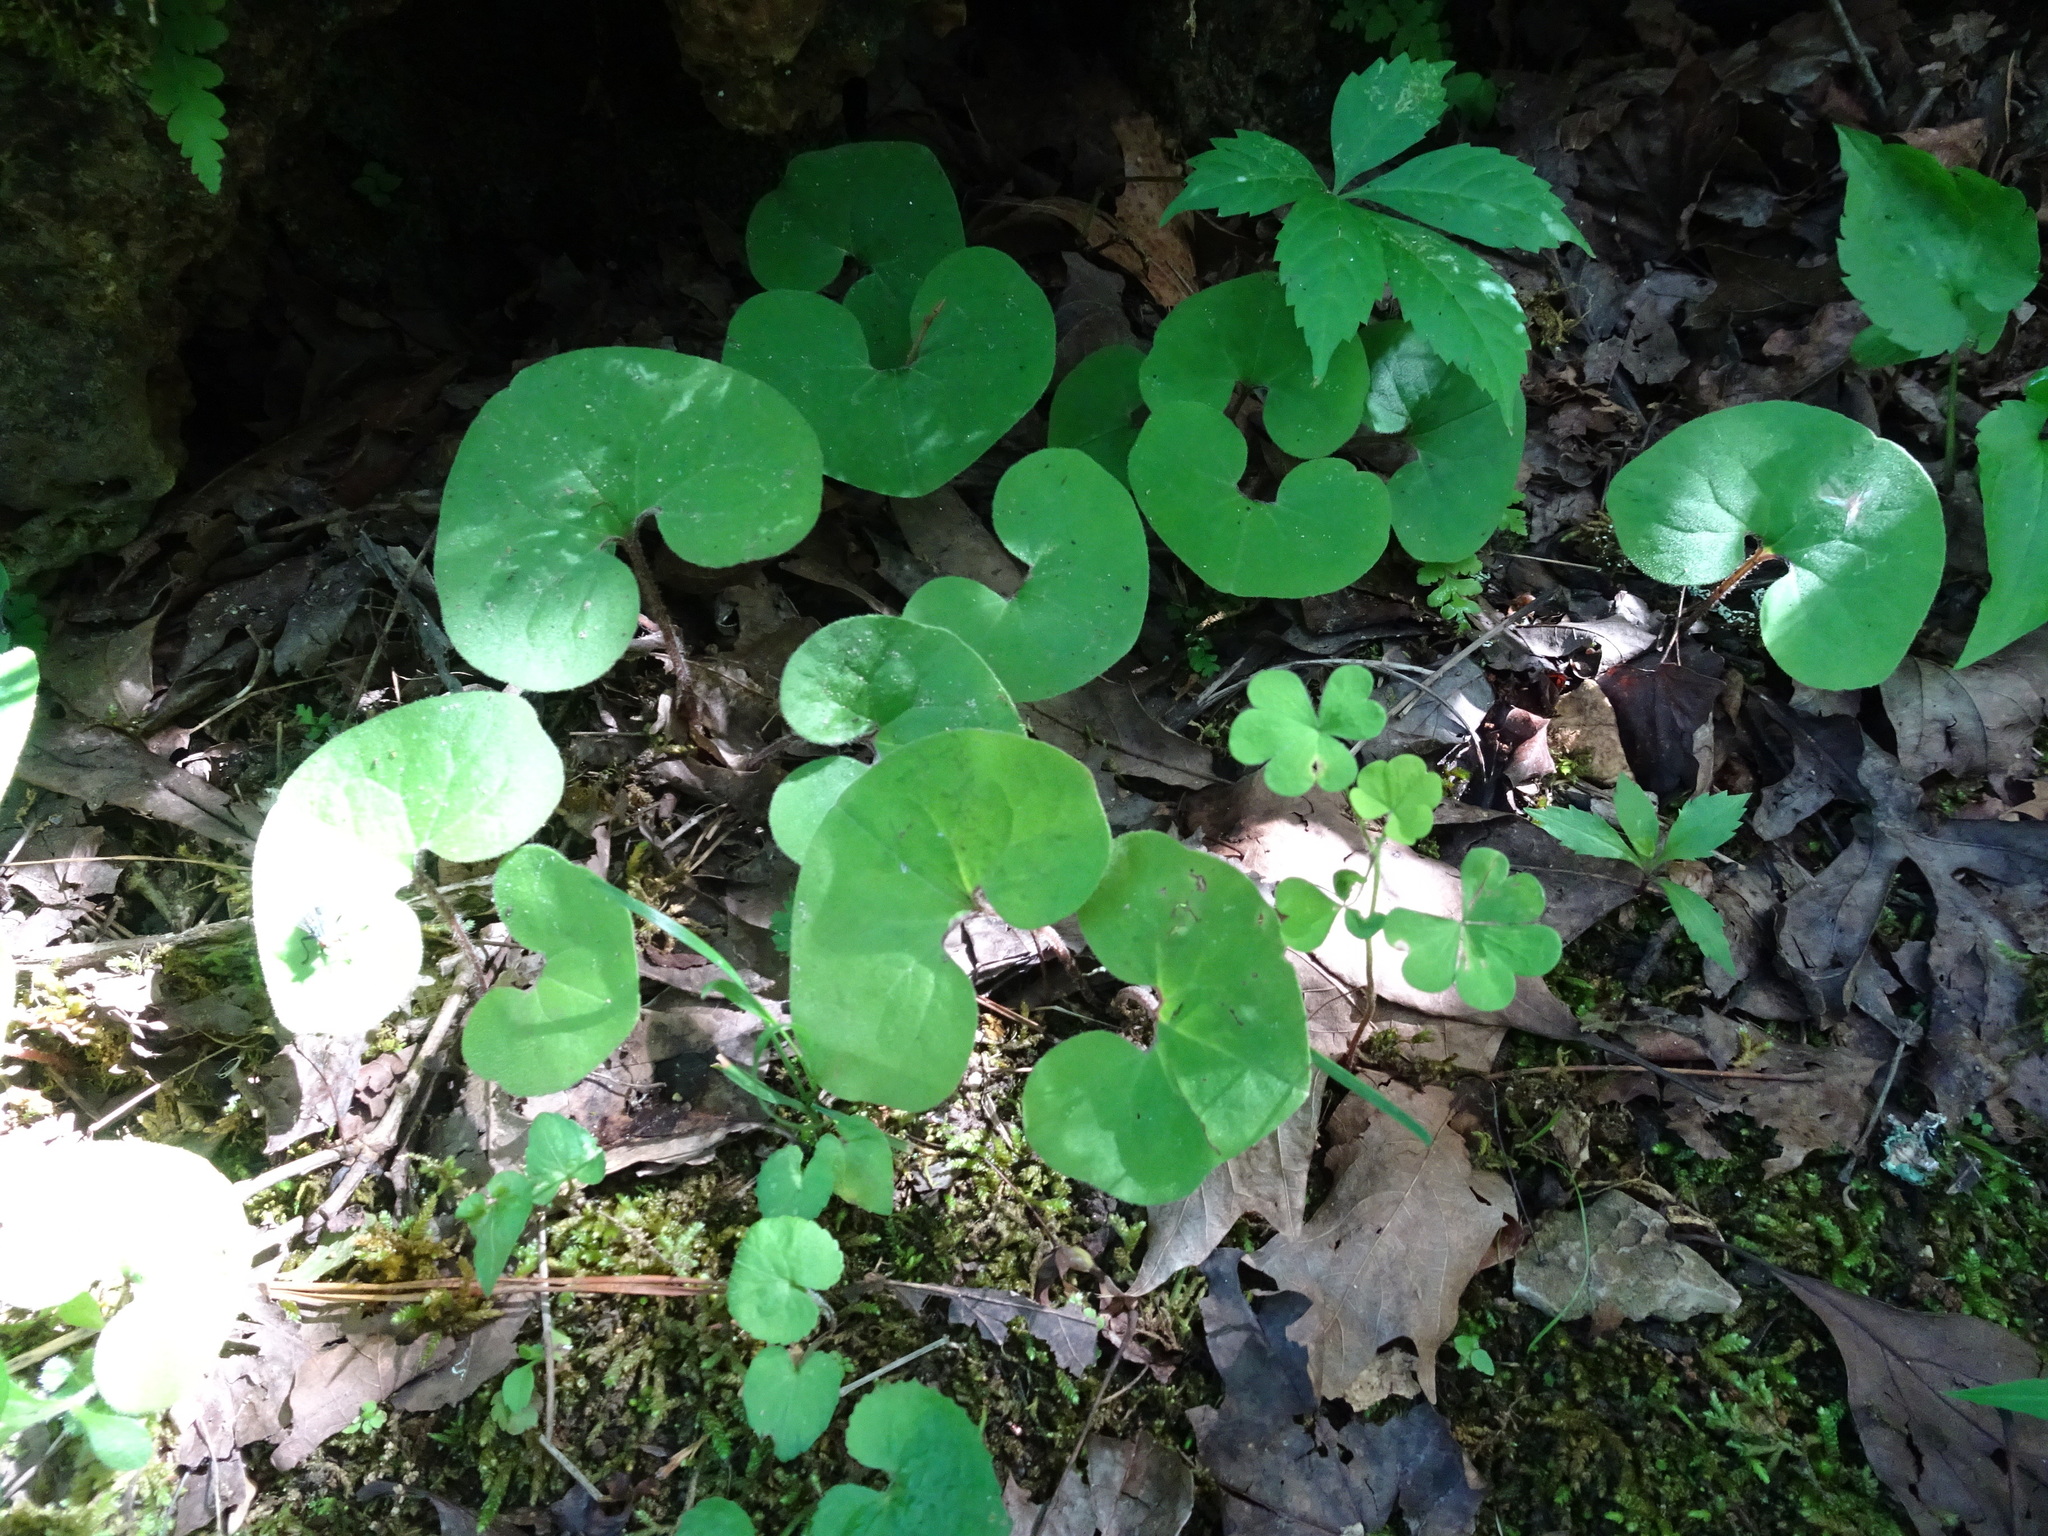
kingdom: Plantae
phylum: Tracheophyta
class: Magnoliopsida
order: Piperales
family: Aristolochiaceae
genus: Asarum
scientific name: Asarum canadense
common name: Wild ginger
